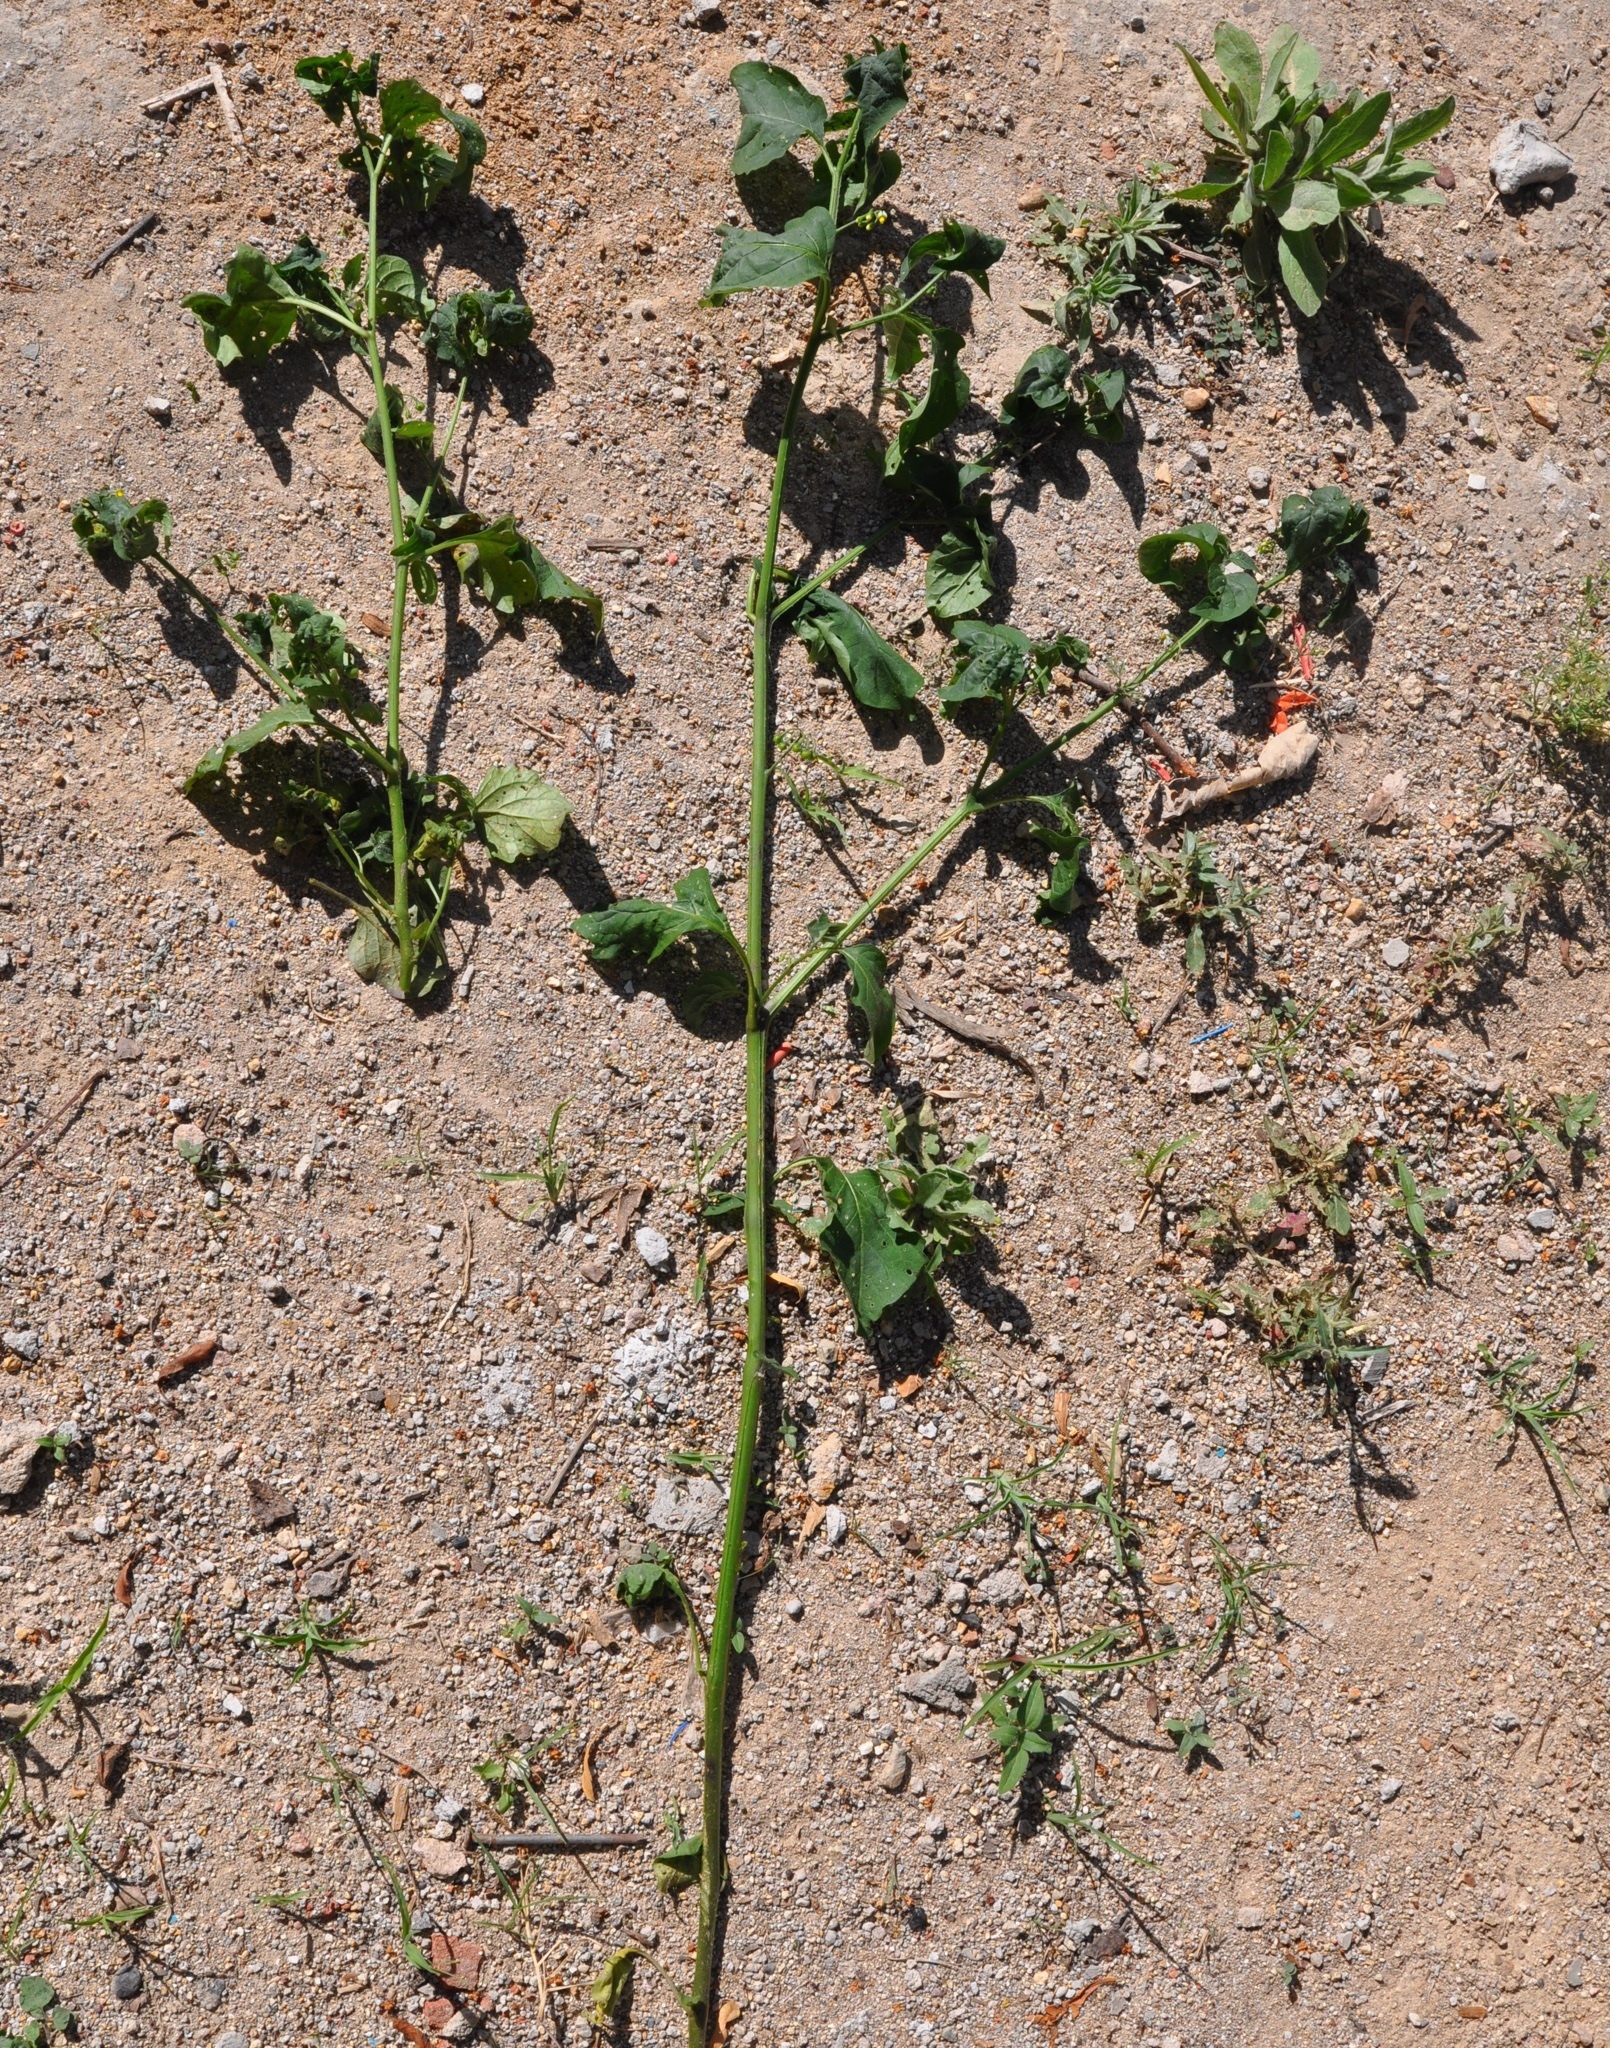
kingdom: Plantae
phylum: Tracheophyta
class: Magnoliopsida
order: Solanales
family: Solanaceae
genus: Solanum
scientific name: Solanum
